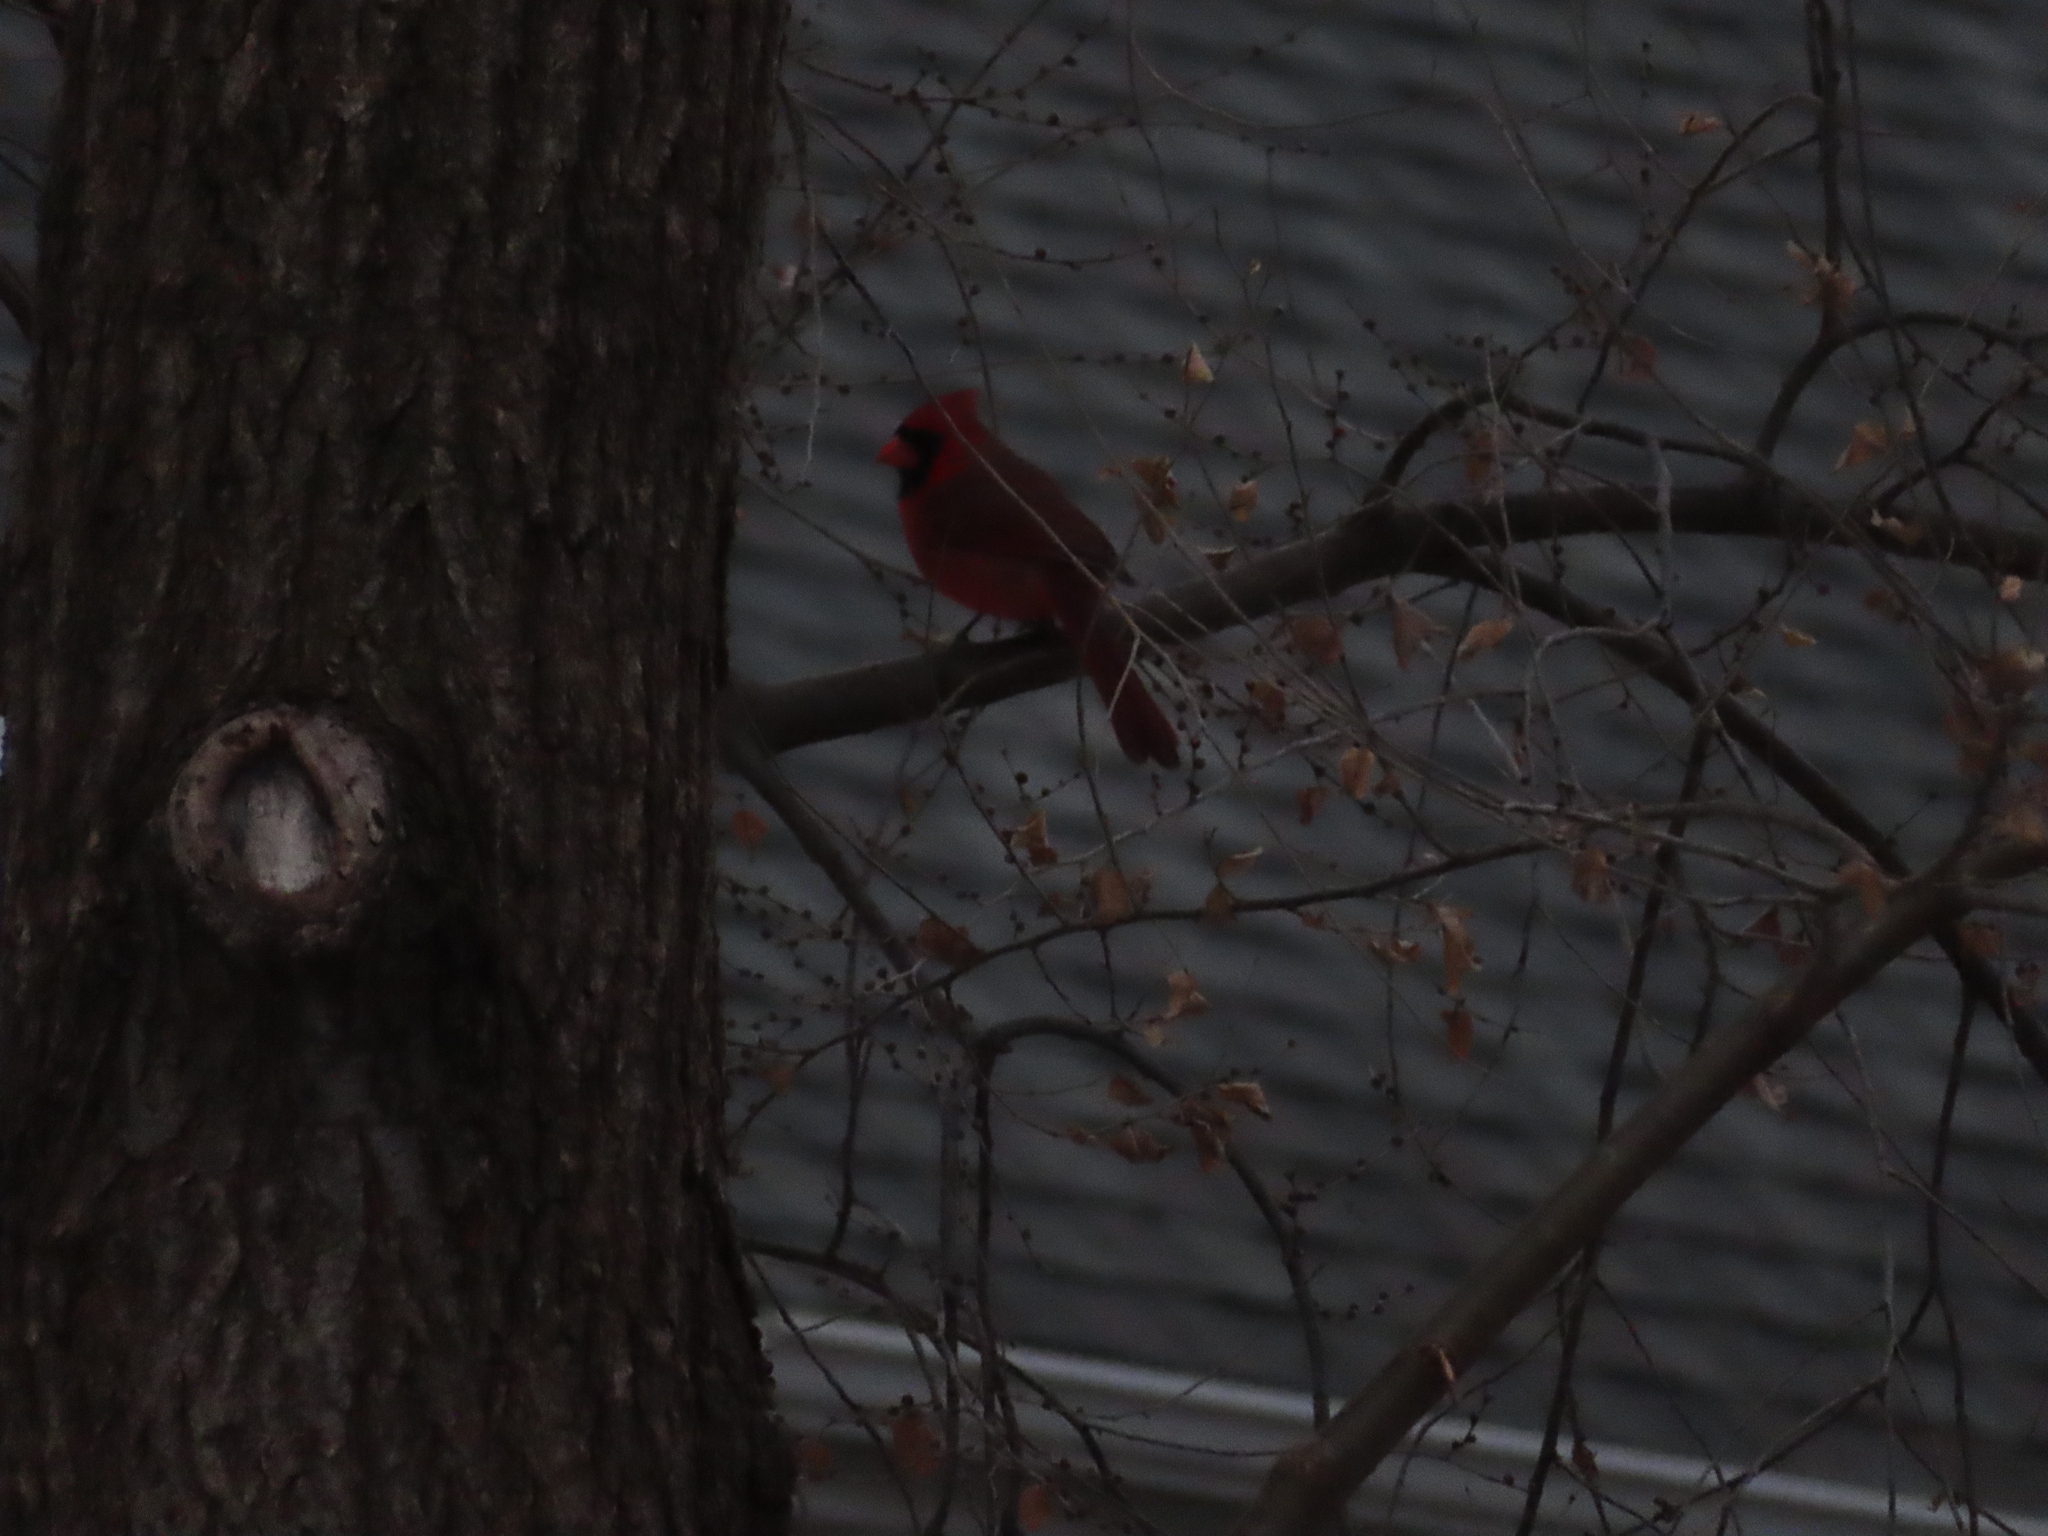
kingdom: Animalia
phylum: Chordata
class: Aves
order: Passeriformes
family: Cardinalidae
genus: Cardinalis
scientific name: Cardinalis cardinalis
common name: Northern cardinal
